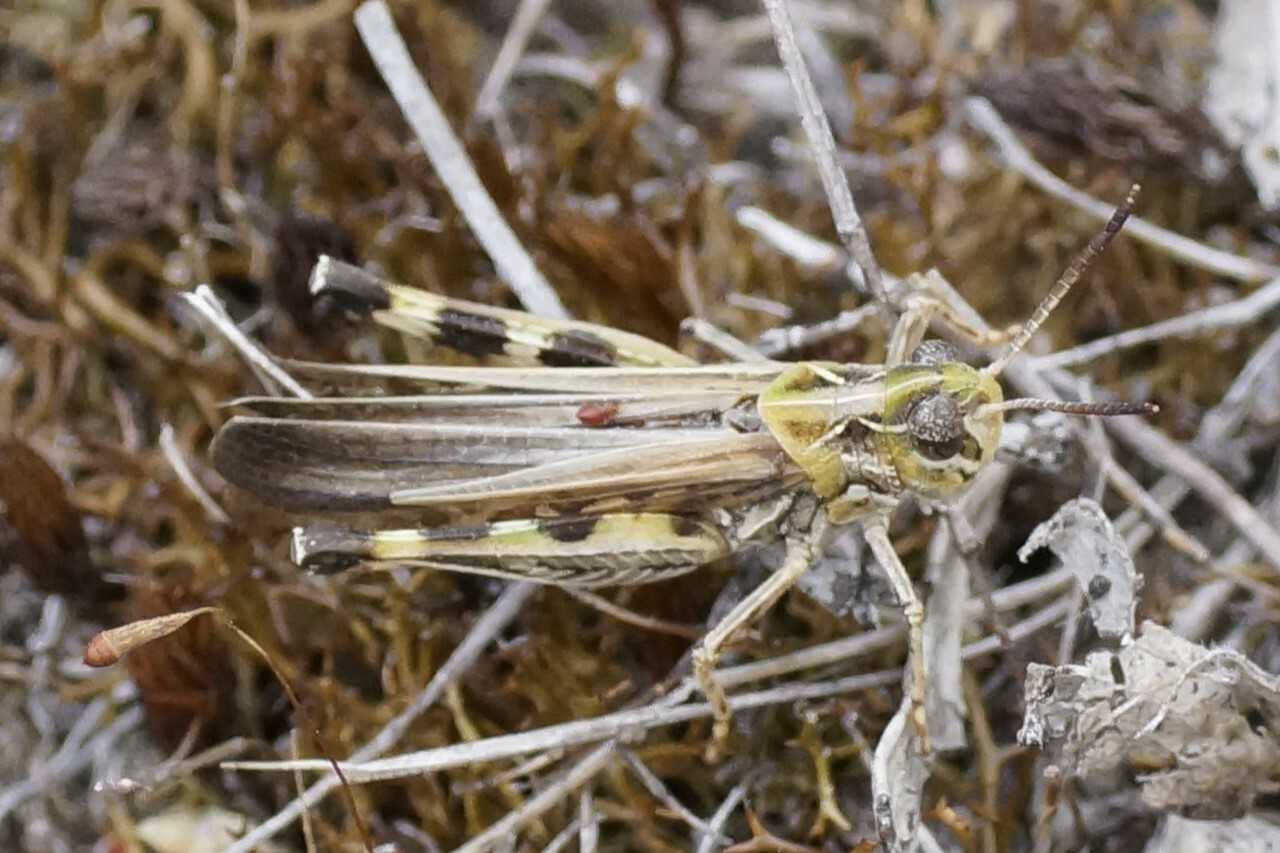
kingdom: Animalia
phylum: Arthropoda
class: Insecta
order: Orthoptera
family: Acrididae
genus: Austroicetes
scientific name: Austroicetes vulgaris
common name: Southeastern austroicetes
